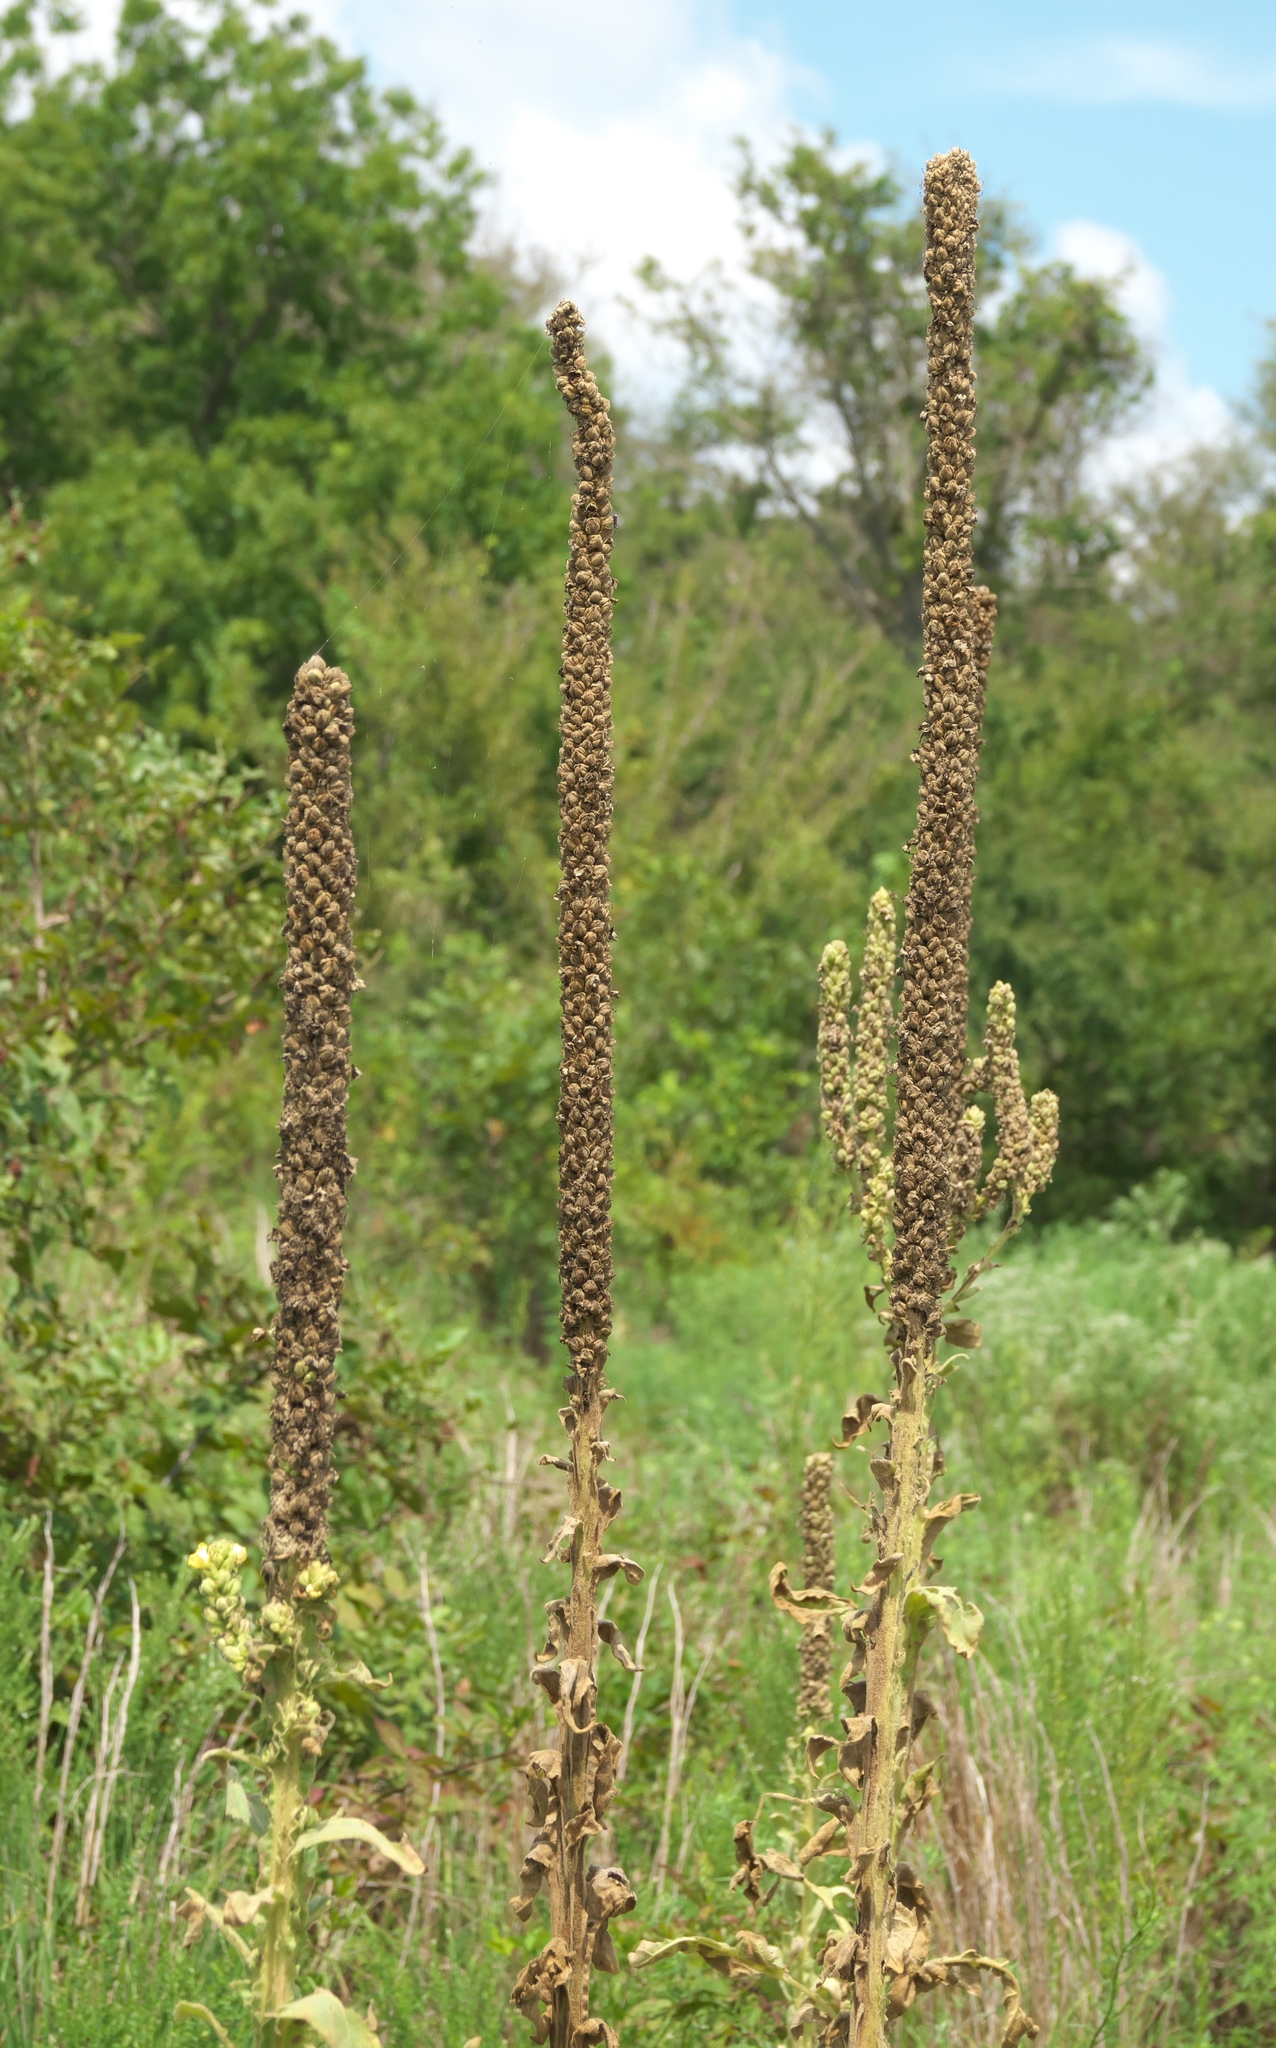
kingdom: Plantae
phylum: Tracheophyta
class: Magnoliopsida
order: Lamiales
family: Scrophulariaceae
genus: Verbascum
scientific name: Verbascum thapsus
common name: Common mullein
